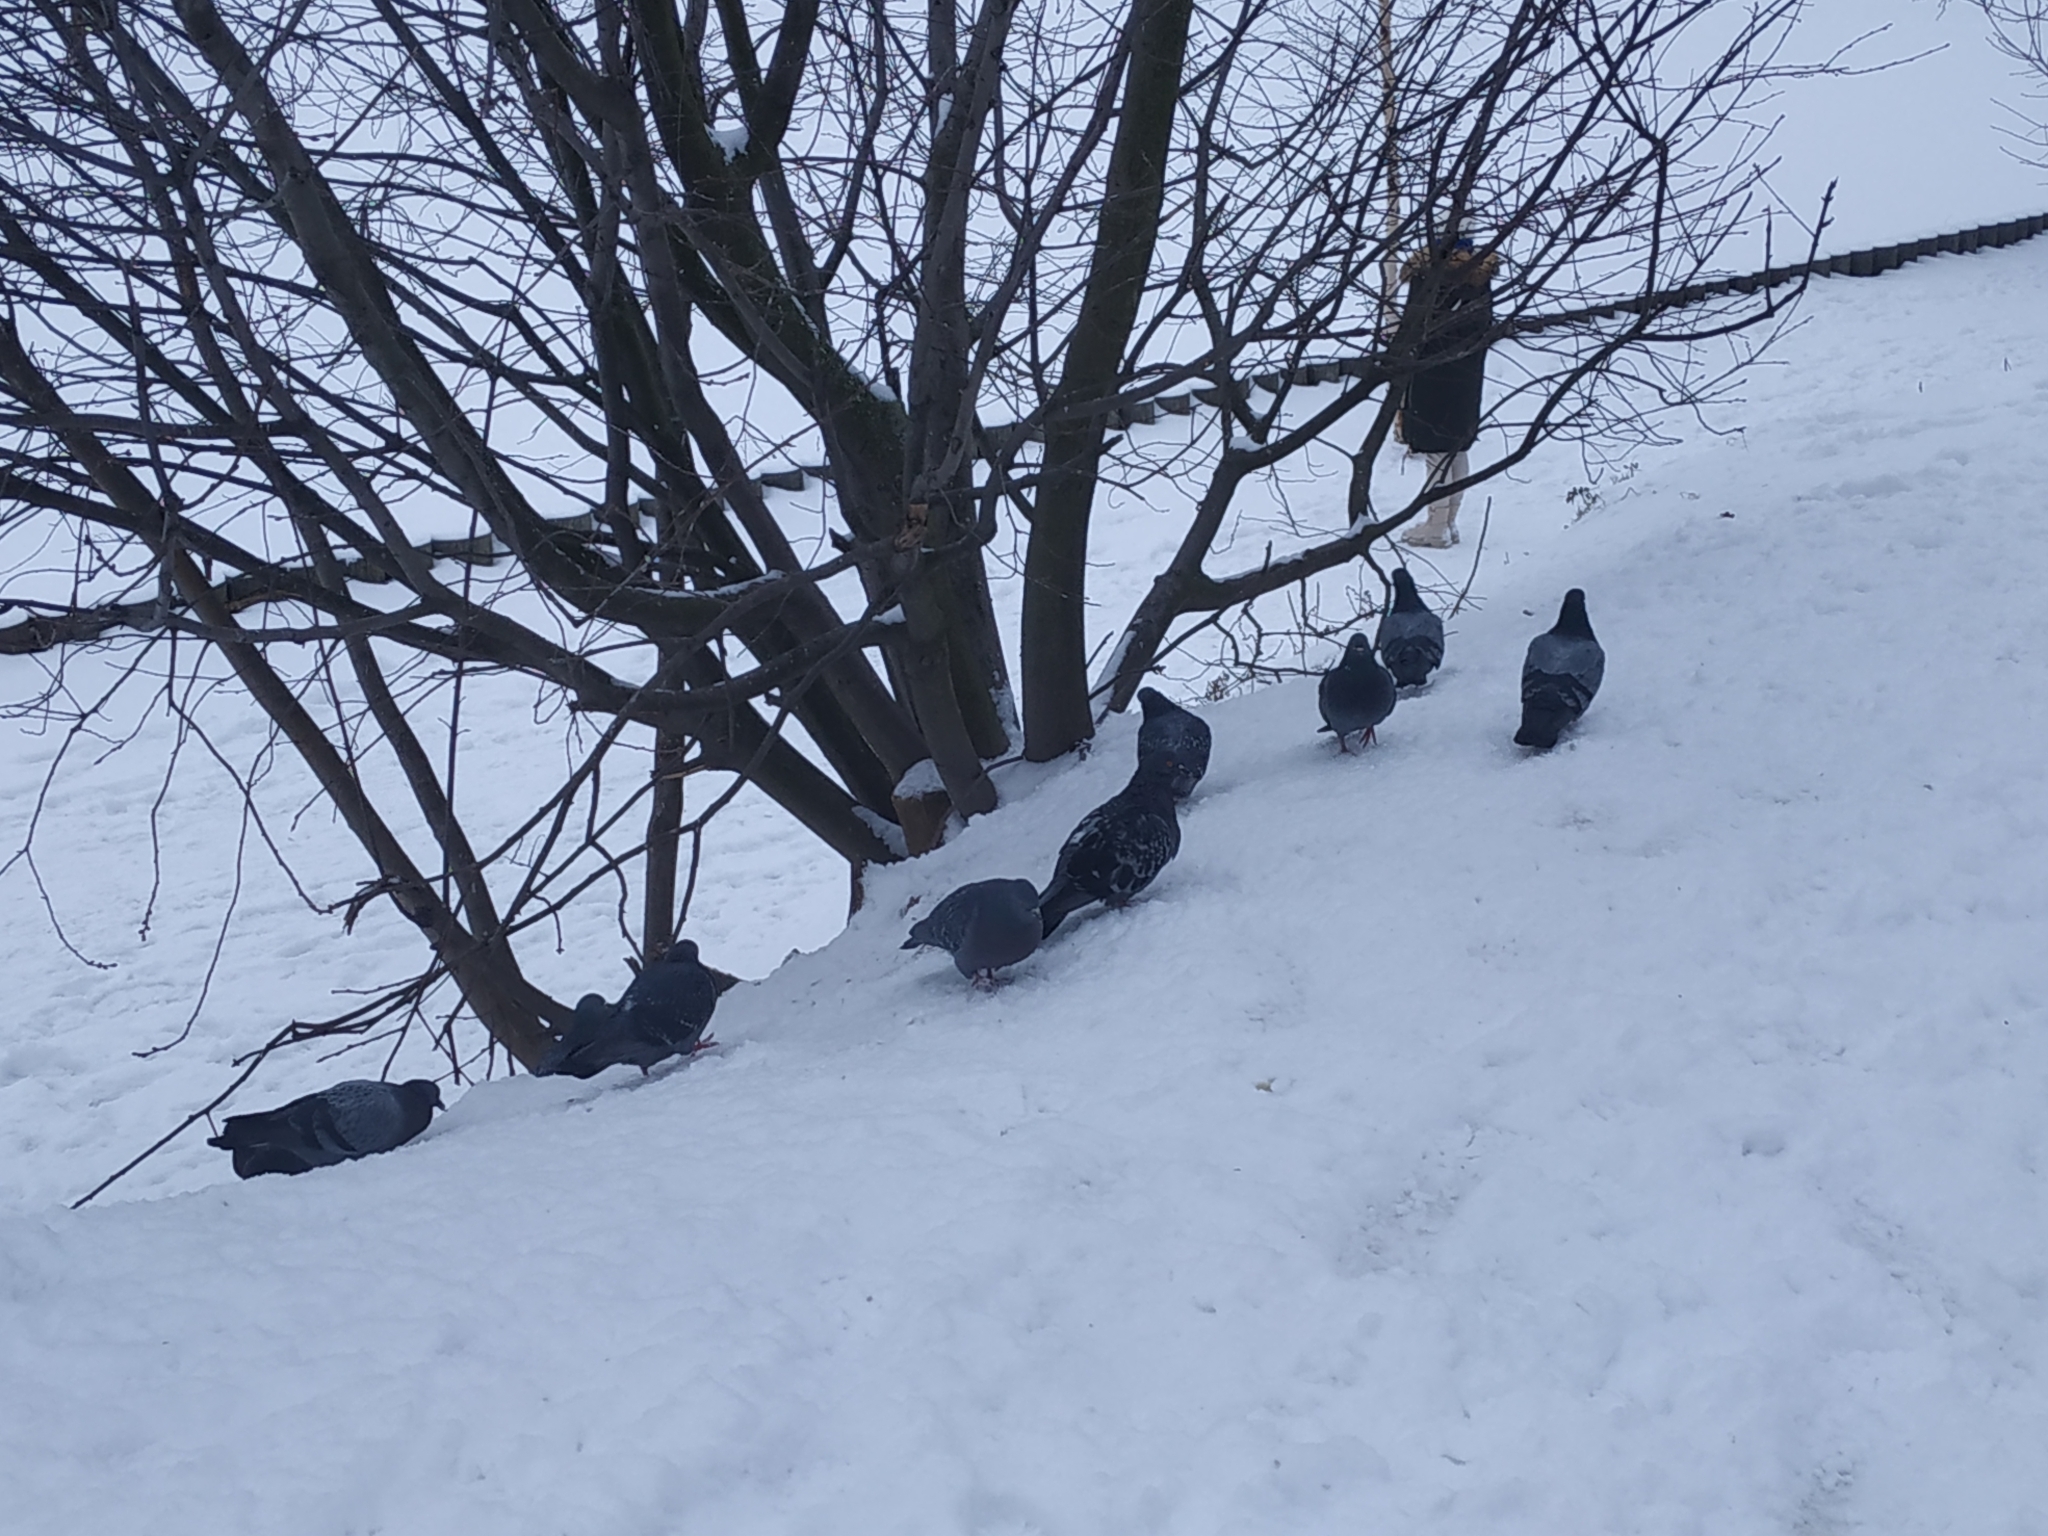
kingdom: Animalia
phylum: Chordata
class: Aves
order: Columbiformes
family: Columbidae
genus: Columba
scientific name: Columba livia
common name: Rock pigeon
